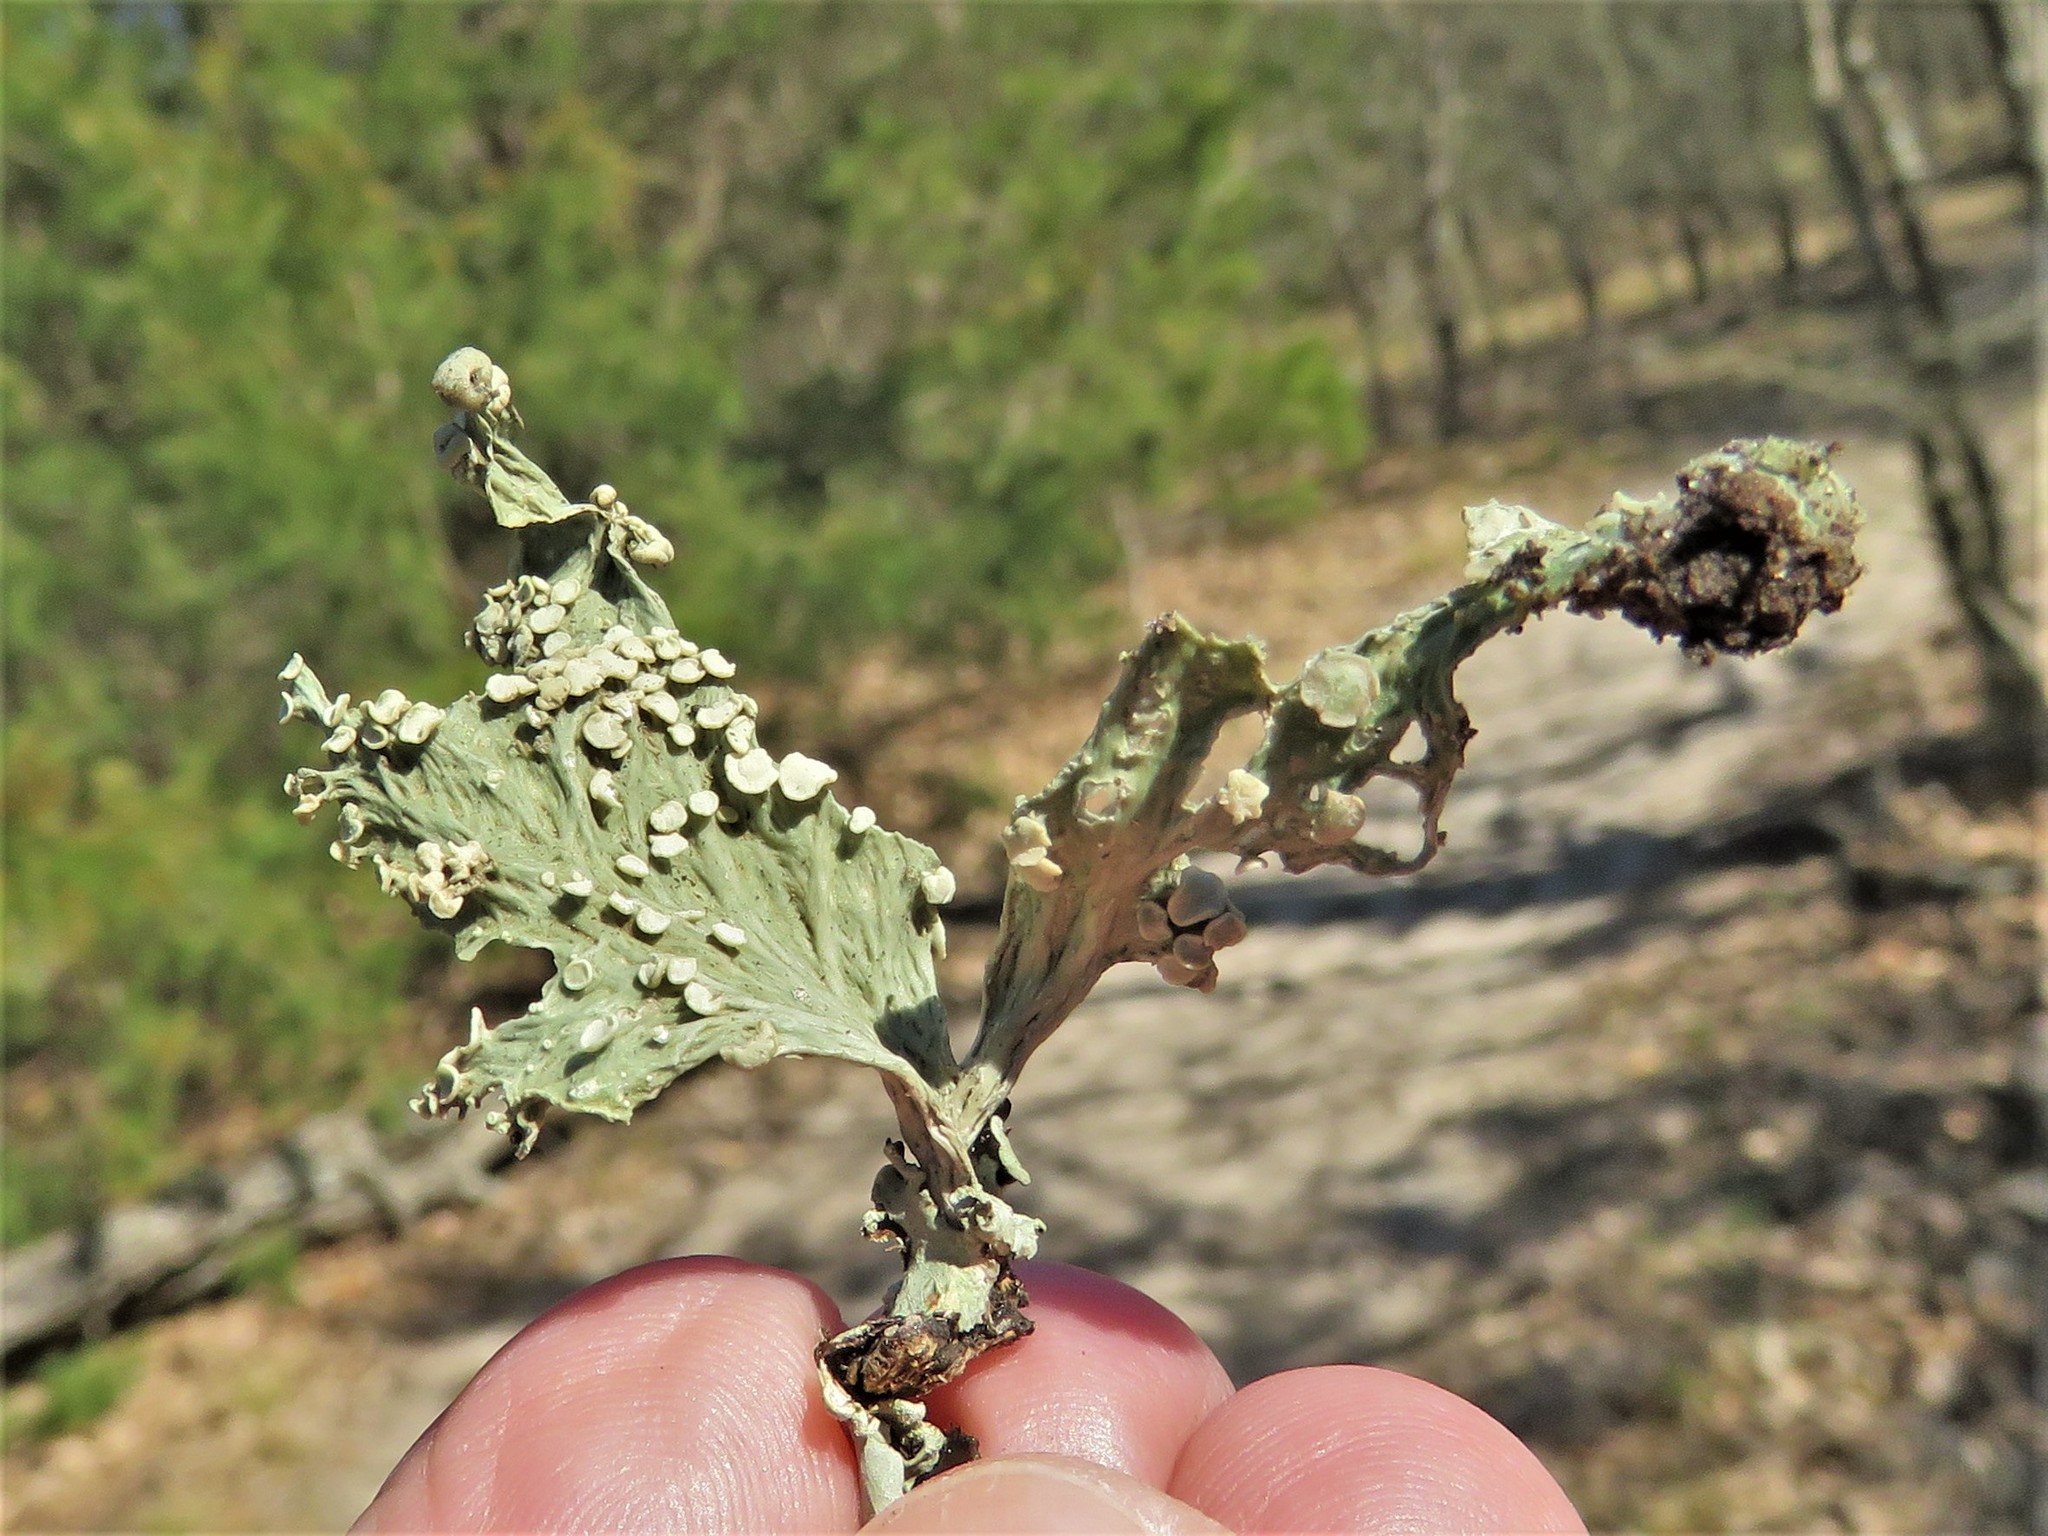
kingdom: Fungi
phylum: Ascomycota
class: Lecanoromycetes
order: Lecanorales
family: Ramalinaceae
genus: Ramalina
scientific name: Ramalina celastri
